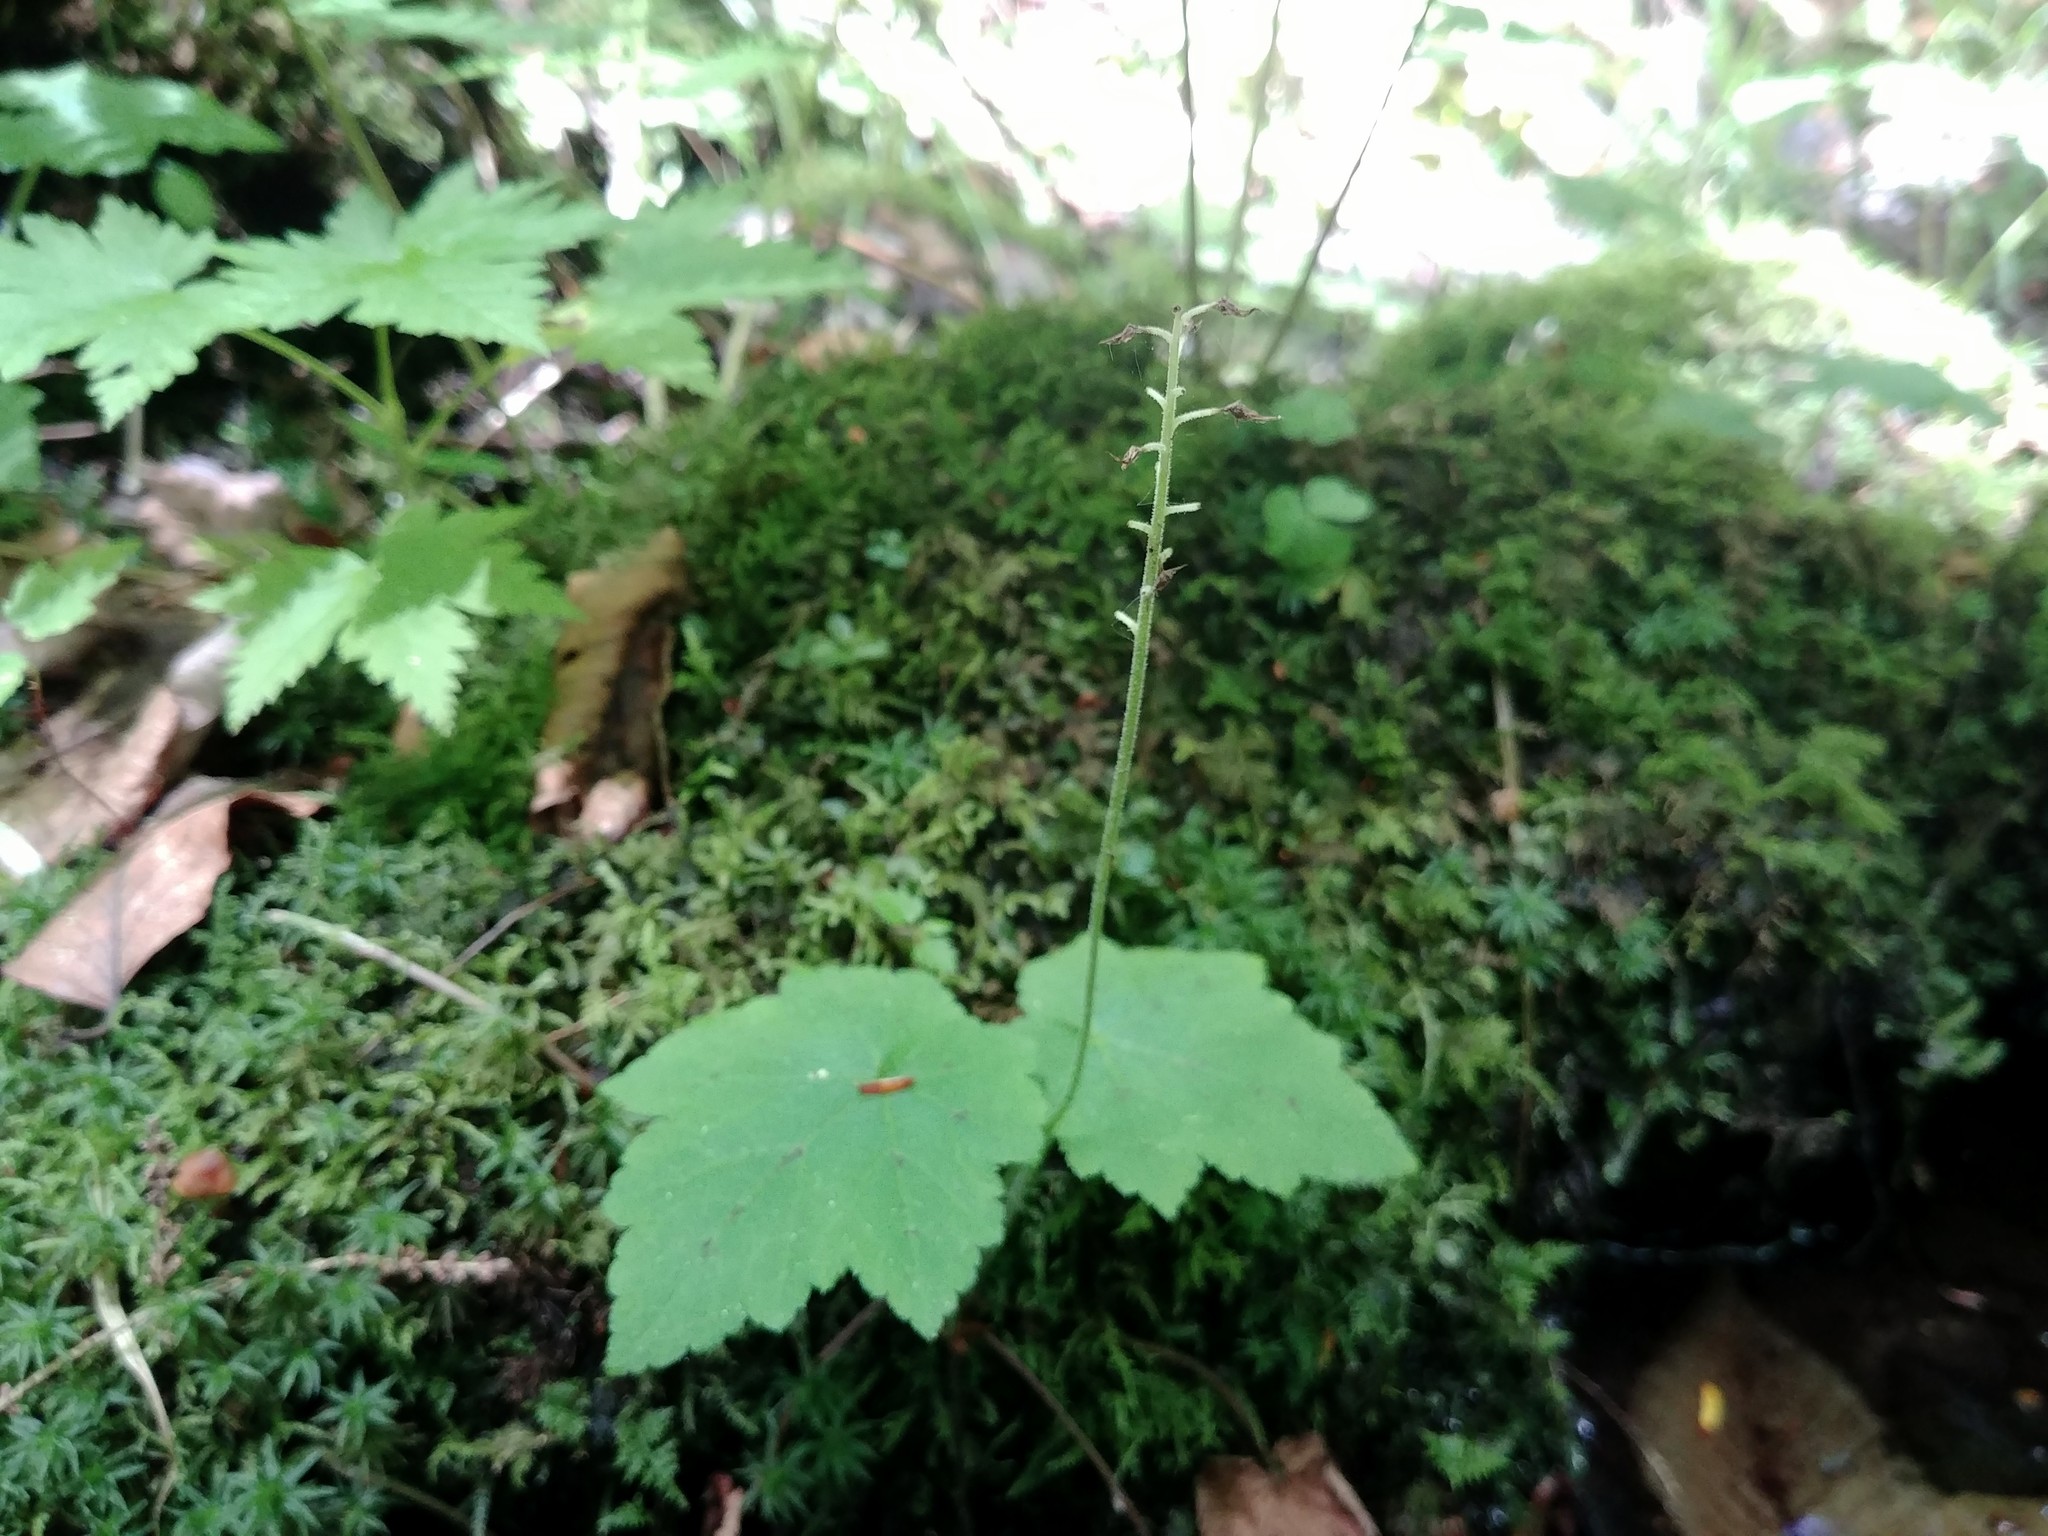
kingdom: Plantae
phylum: Tracheophyta
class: Magnoliopsida
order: Saxifragales
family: Saxifragaceae
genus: Tiarella
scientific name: Tiarella stolonifera
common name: Stoloniferous foamflower
